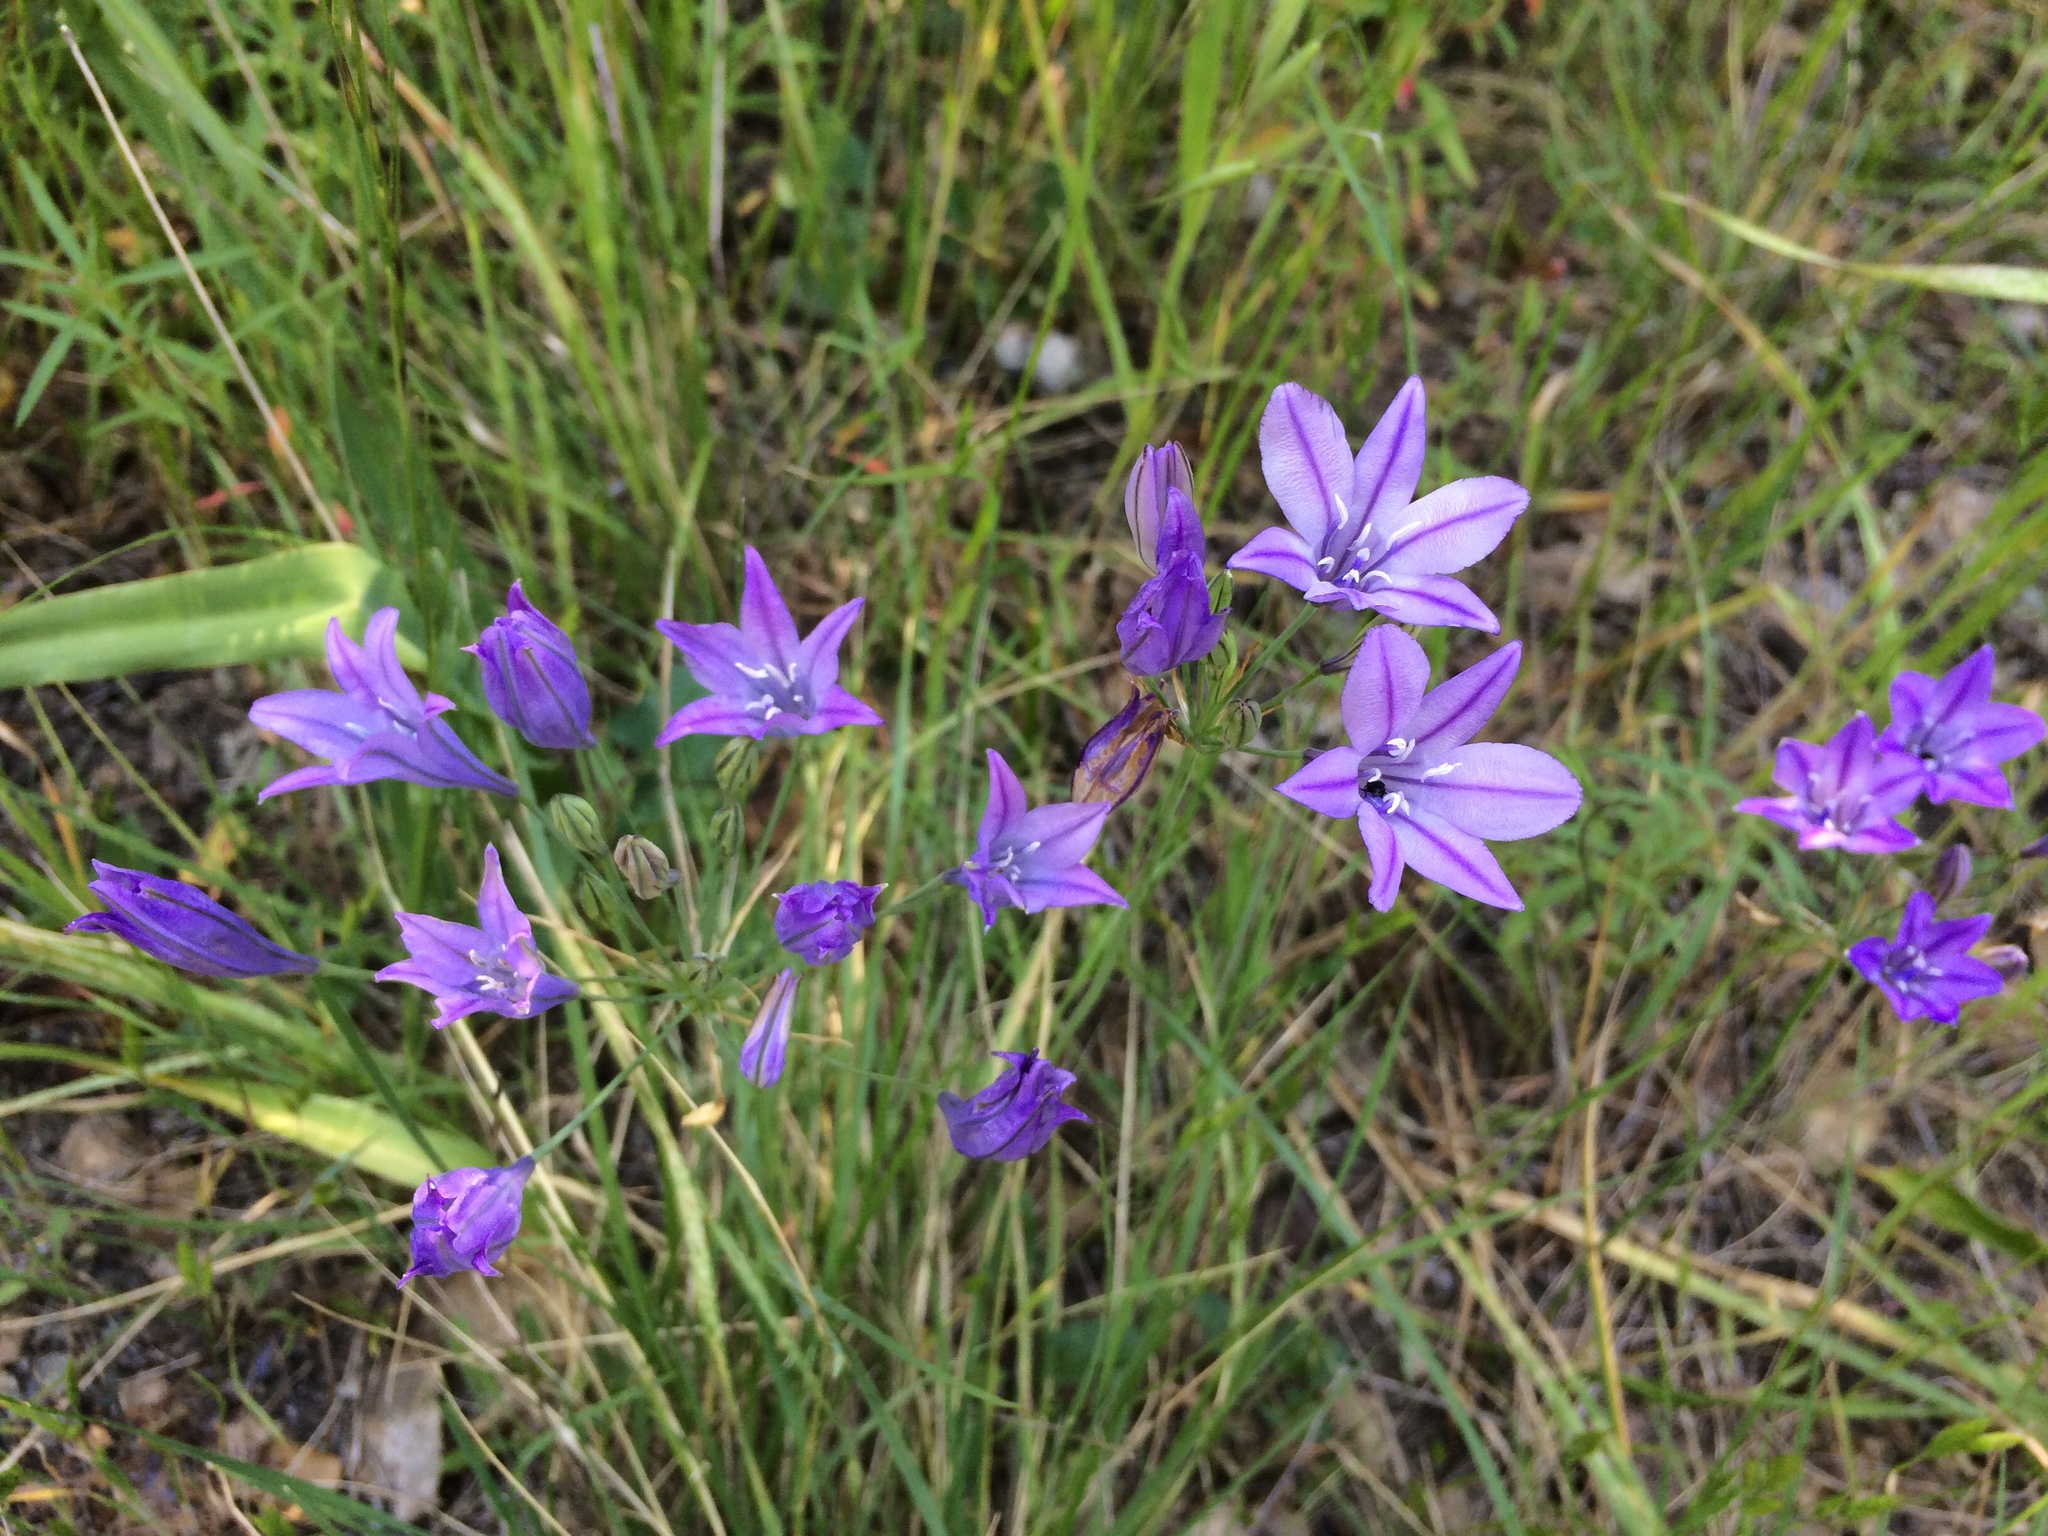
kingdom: Plantae
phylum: Tracheophyta
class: Liliopsida
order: Asparagales
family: Asparagaceae
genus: Triteleia
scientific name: Triteleia laxa
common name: Triplet-lily
